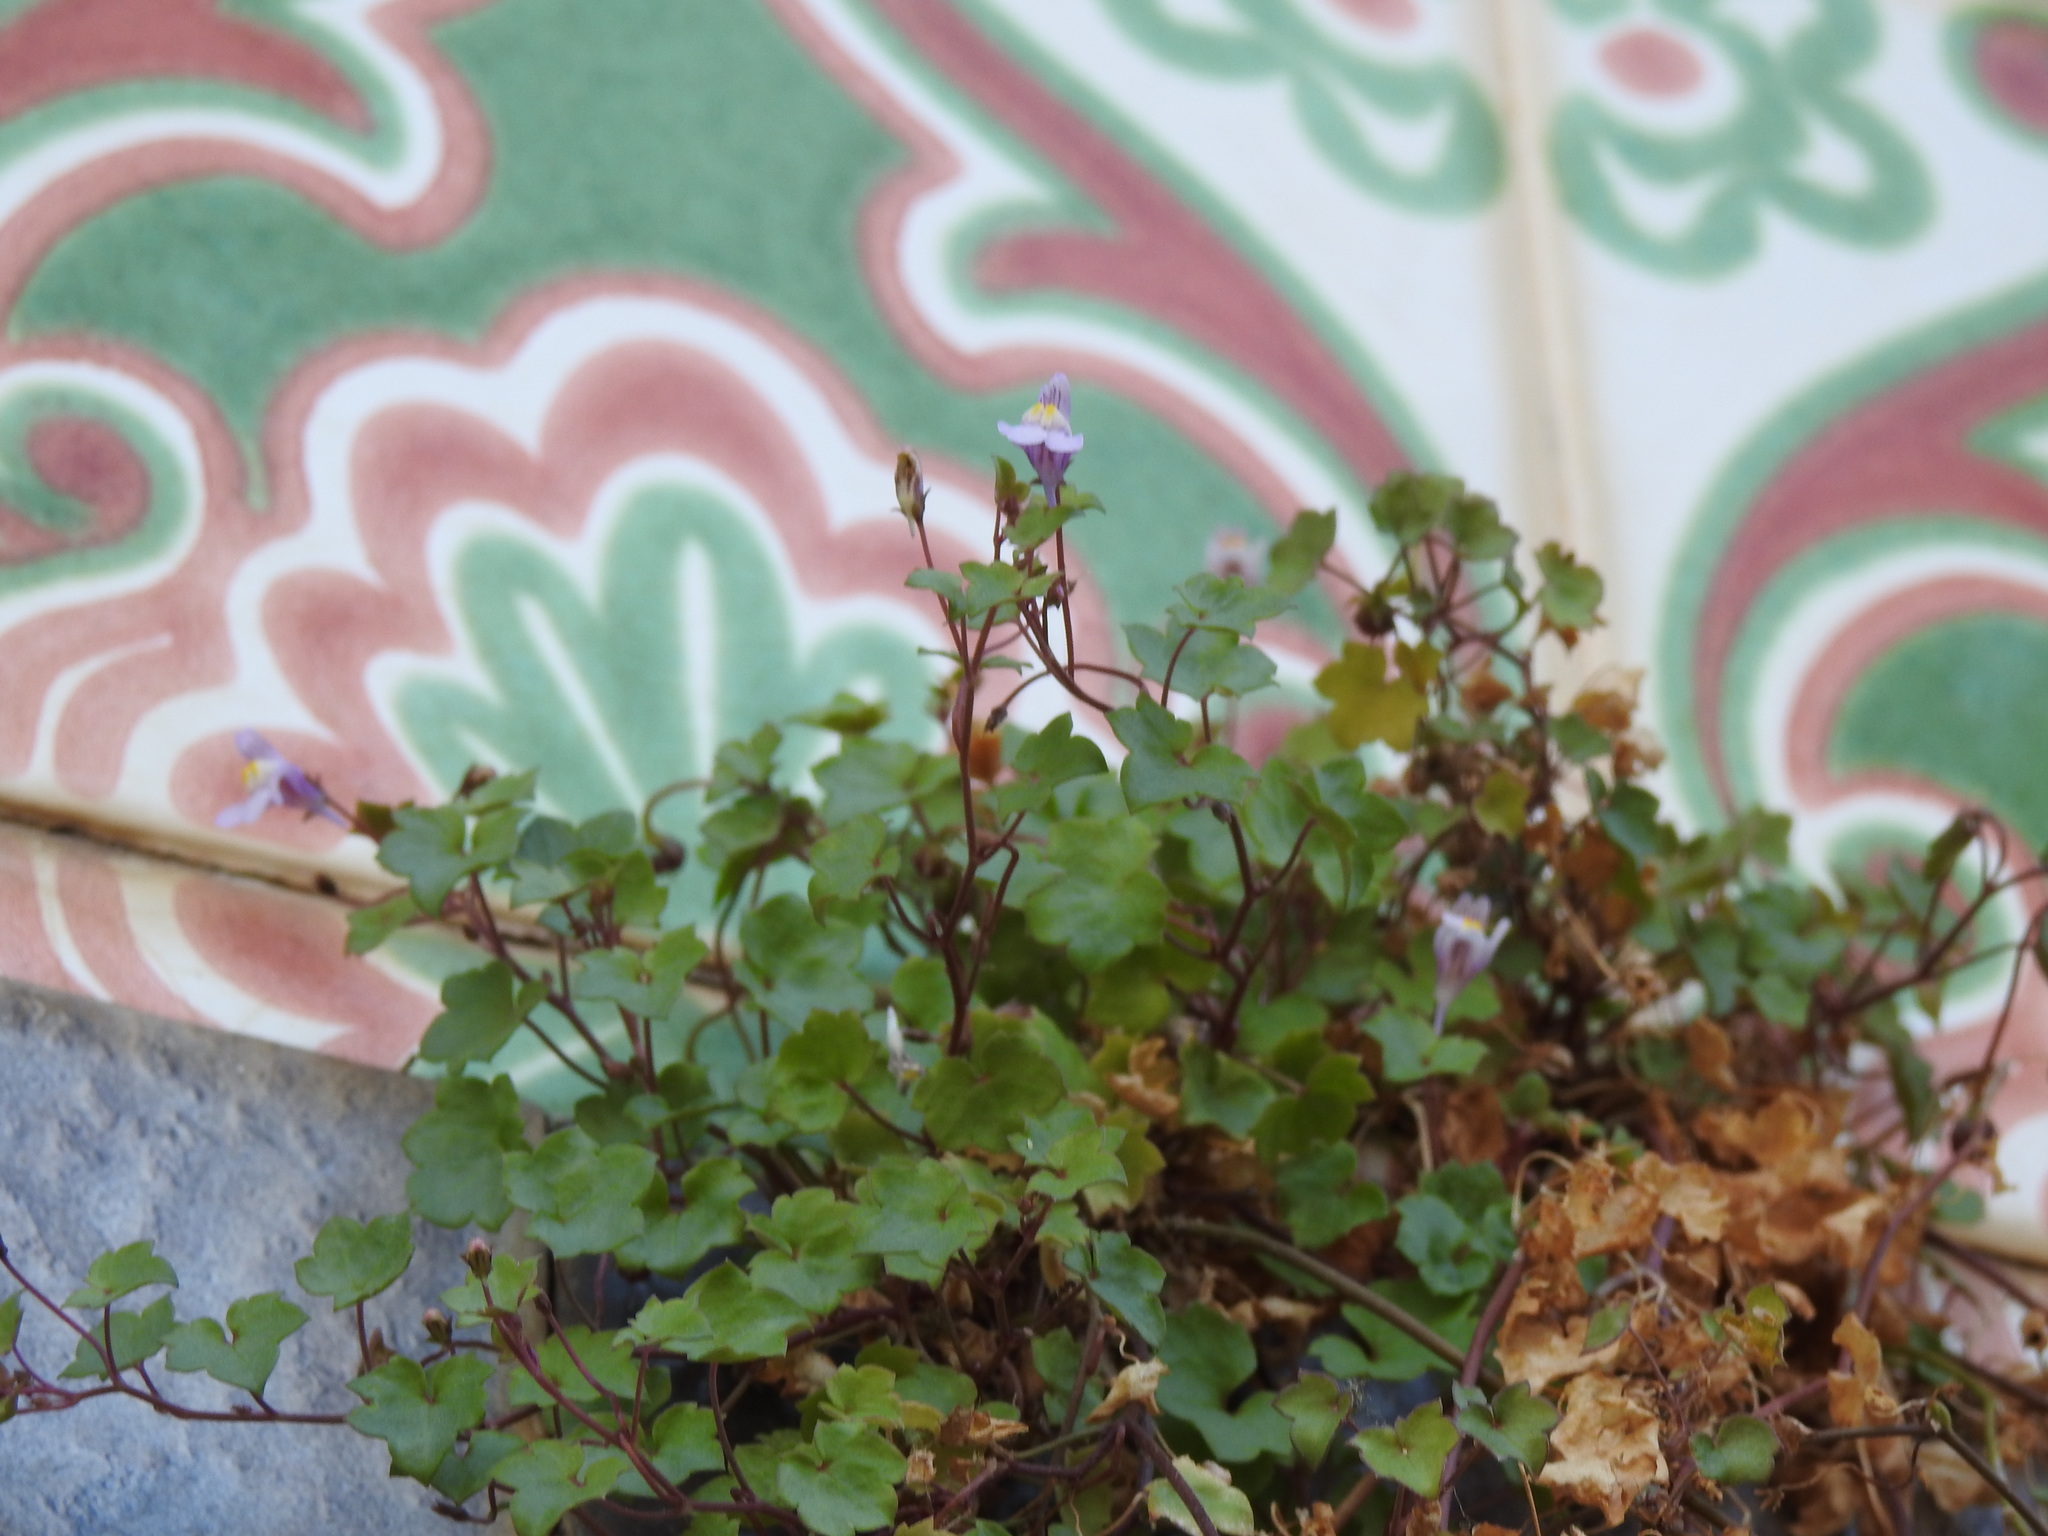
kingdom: Plantae
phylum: Tracheophyta
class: Magnoliopsida
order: Lamiales
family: Plantaginaceae
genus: Cymbalaria
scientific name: Cymbalaria muralis
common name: Ivy-leaved toadflax
